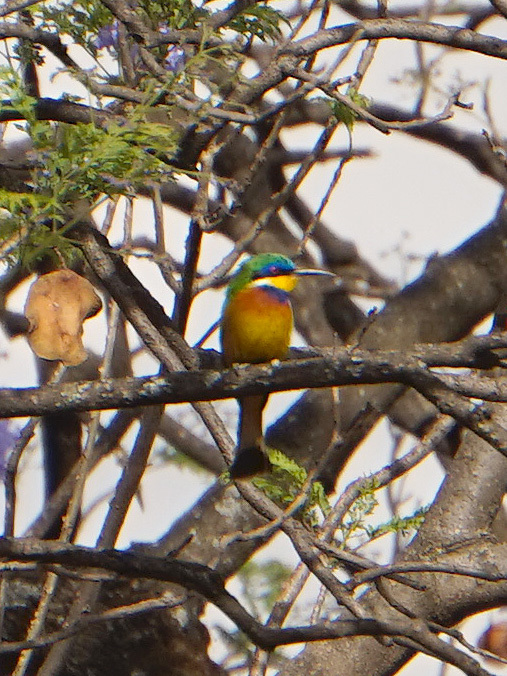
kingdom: Animalia
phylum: Chordata
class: Aves
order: Coraciiformes
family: Meropidae
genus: Merops
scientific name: Merops lafresnayii
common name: Ethiopian bee-eater
